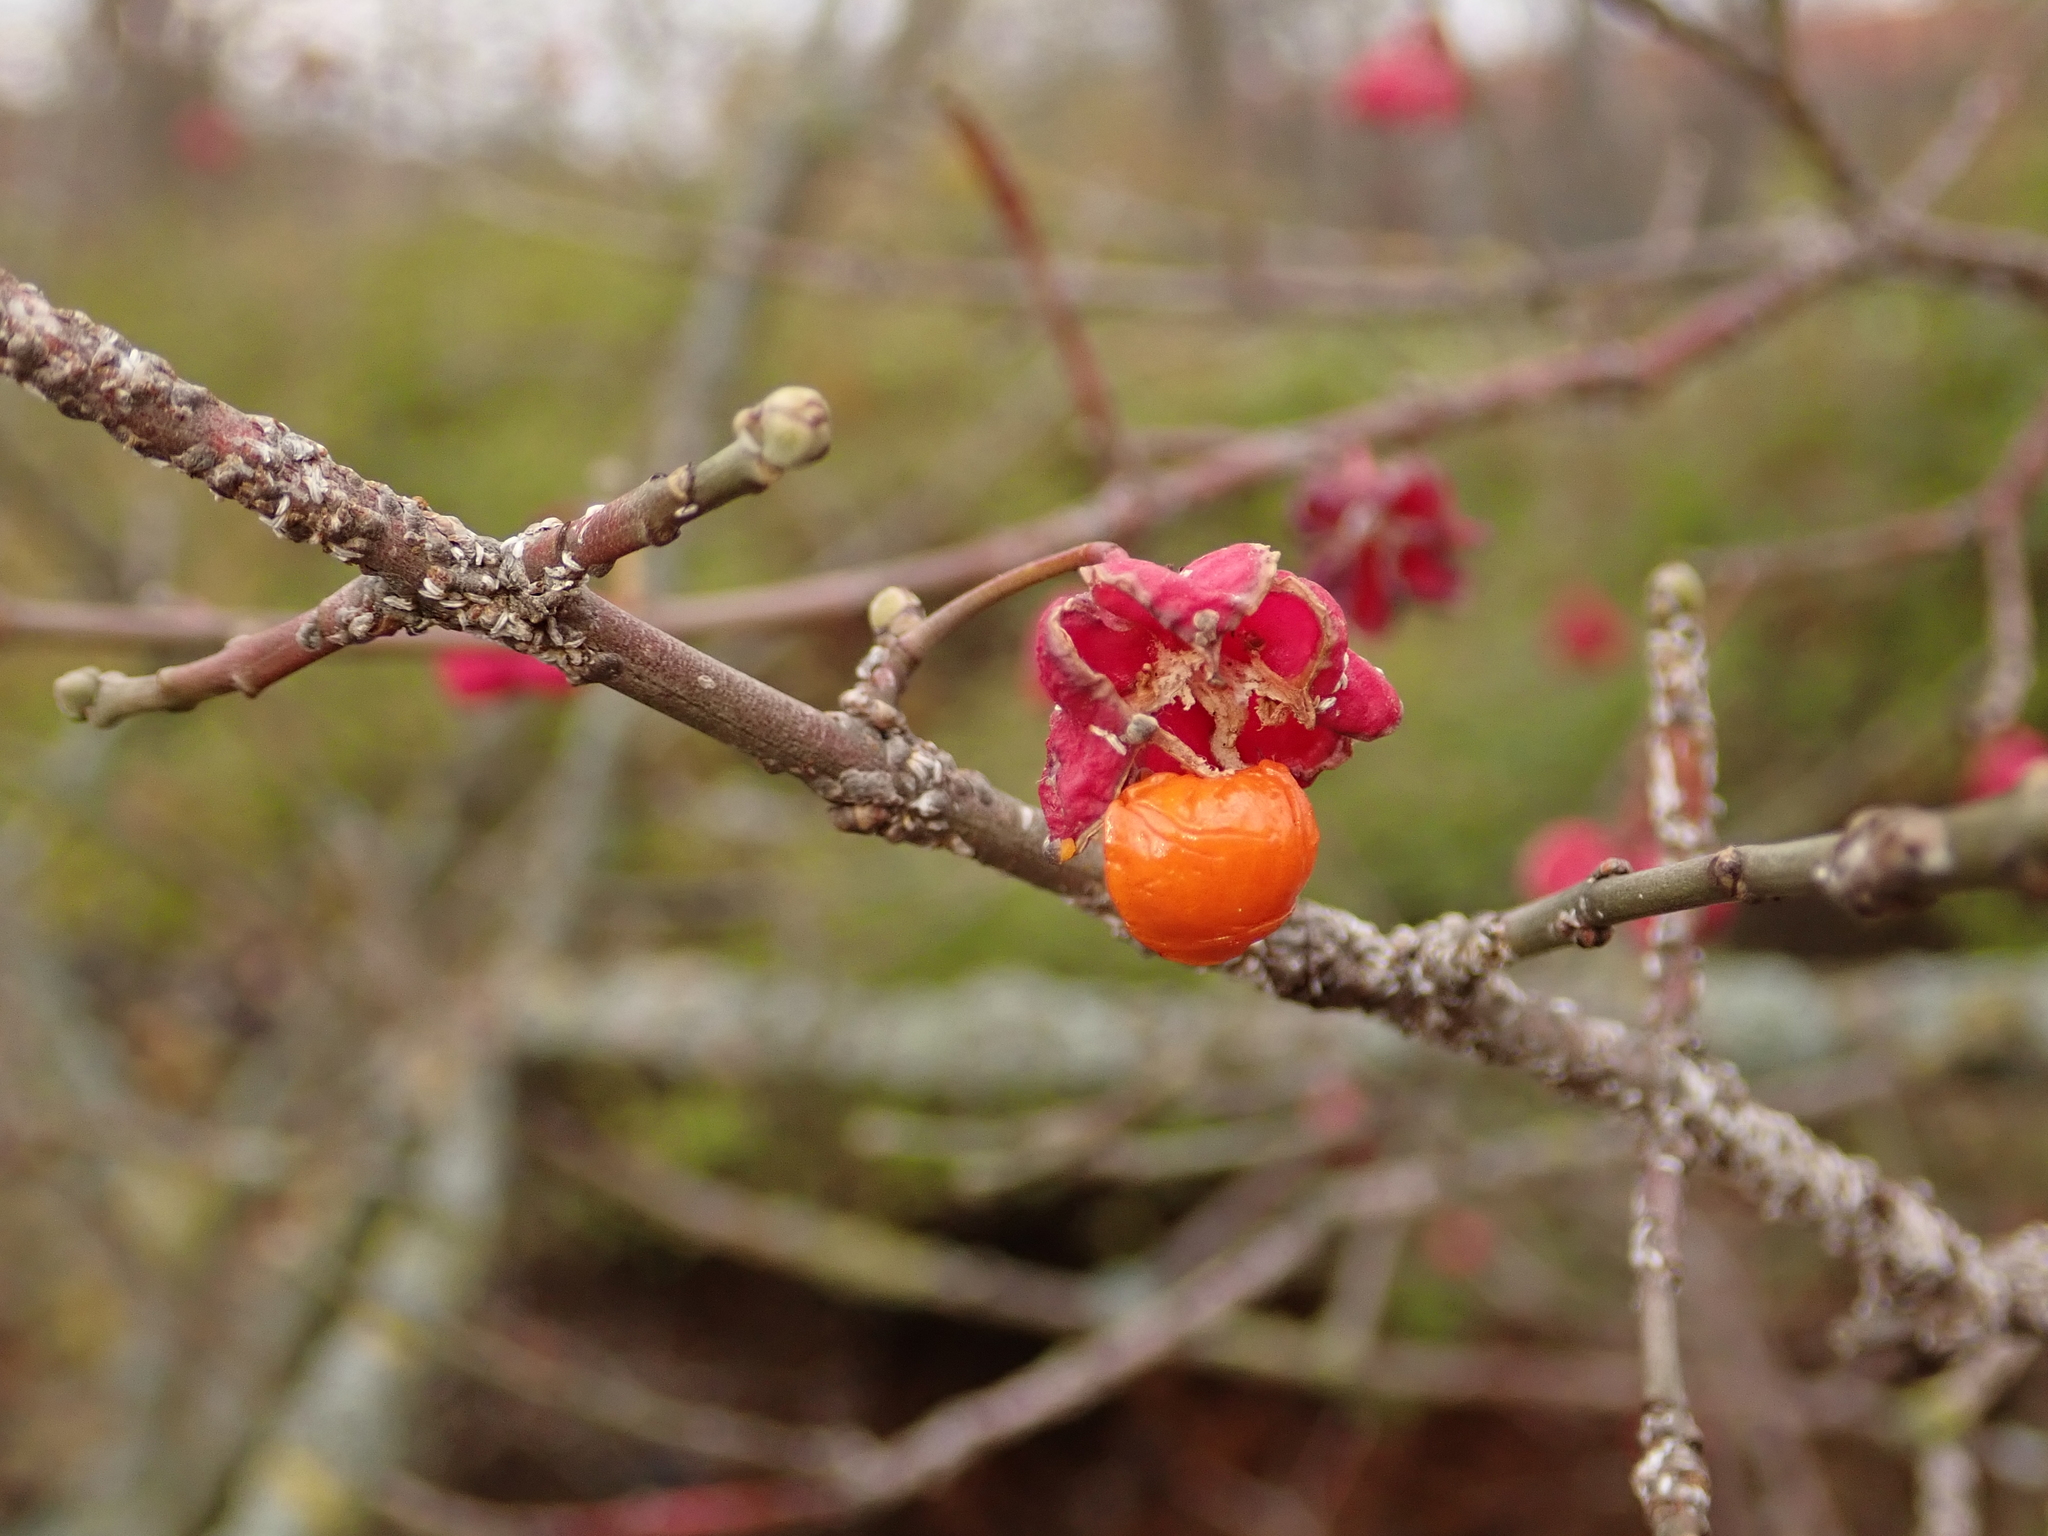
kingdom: Plantae
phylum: Tracheophyta
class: Magnoliopsida
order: Celastrales
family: Celastraceae
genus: Euonymus
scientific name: Euonymus europaeus
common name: Spindle
